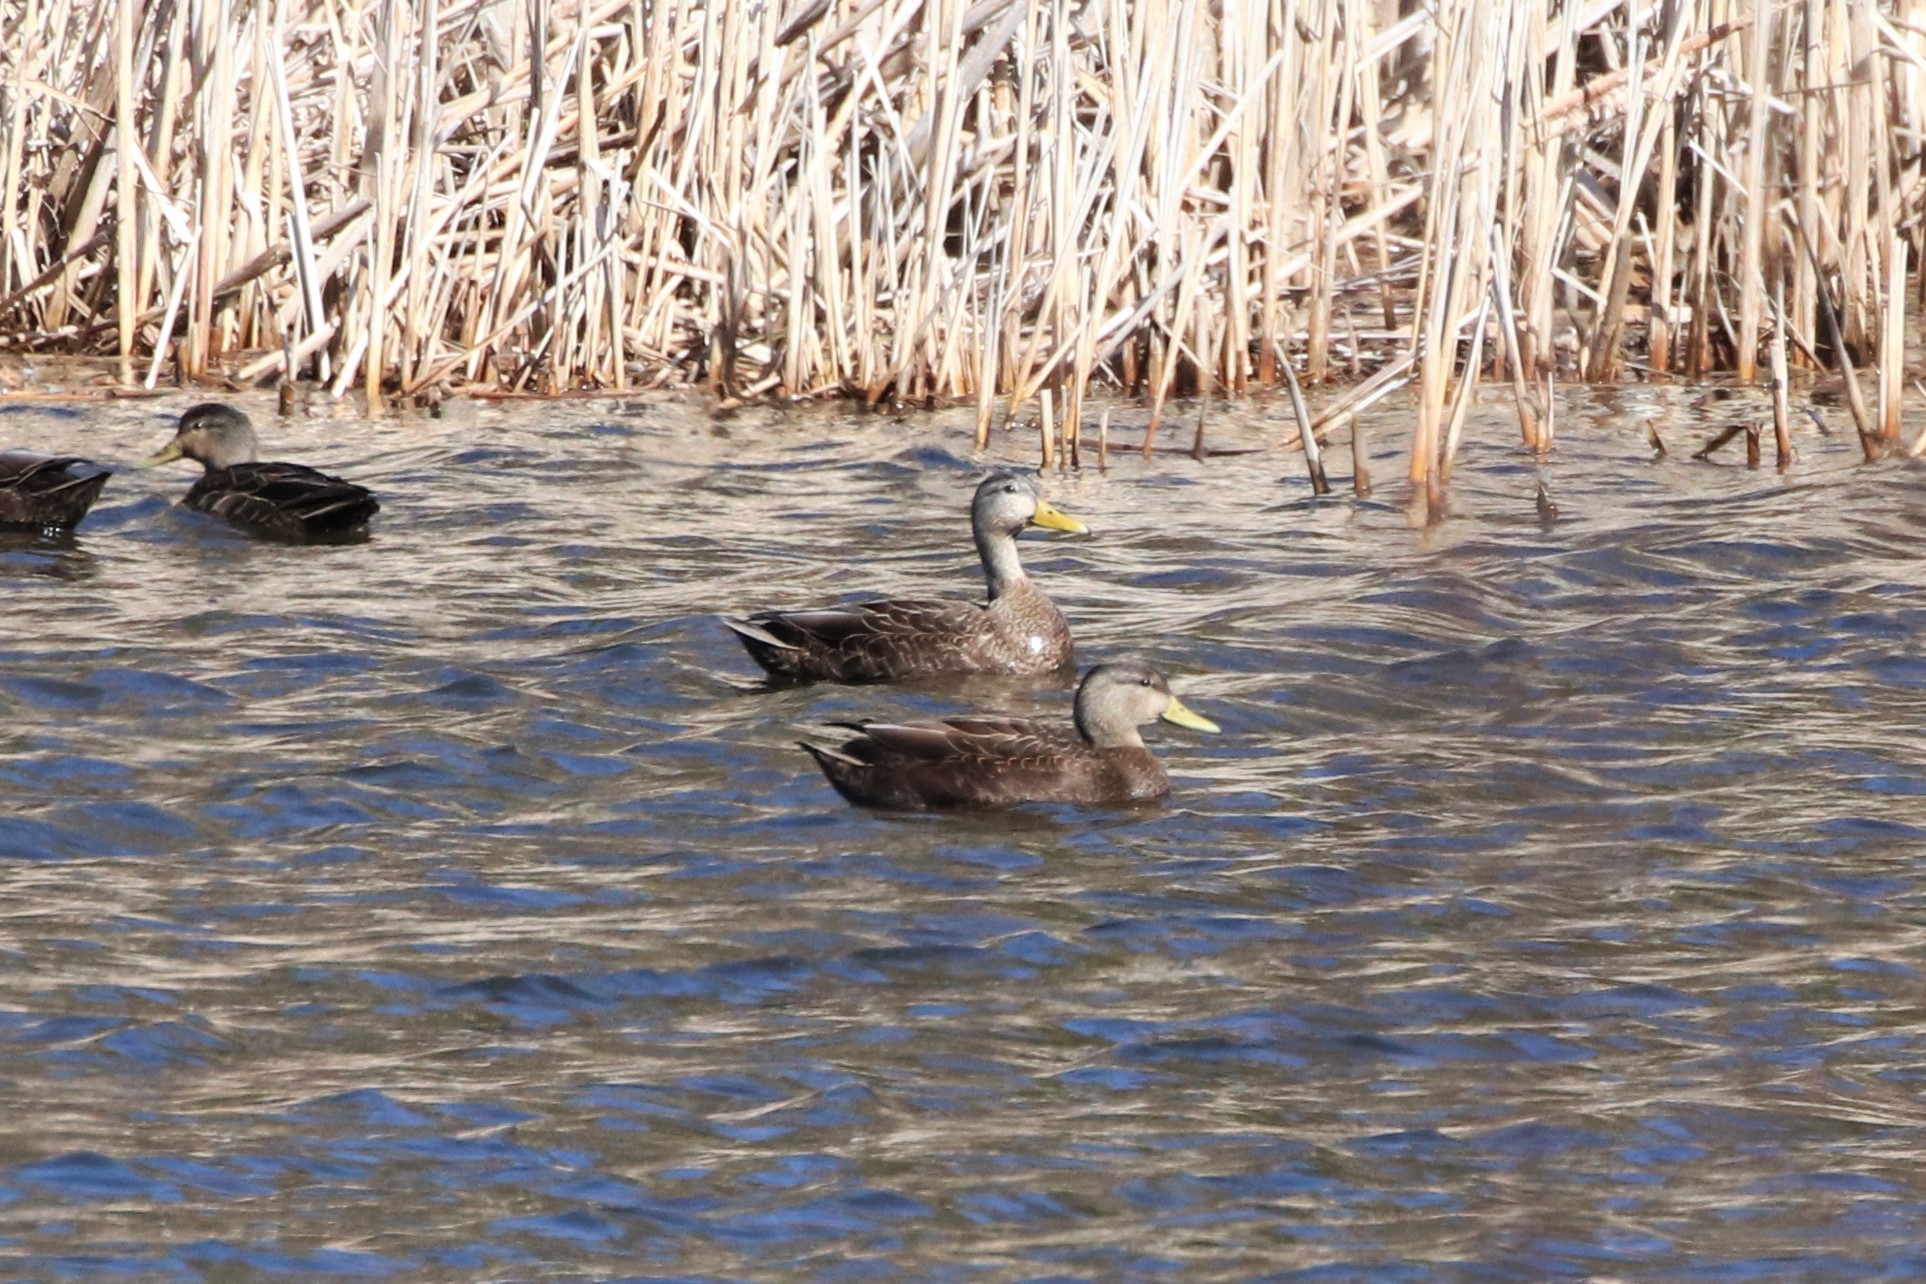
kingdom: Animalia
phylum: Chordata
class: Aves
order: Anseriformes
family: Anatidae
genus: Anas
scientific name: Anas rubripes
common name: American black duck
